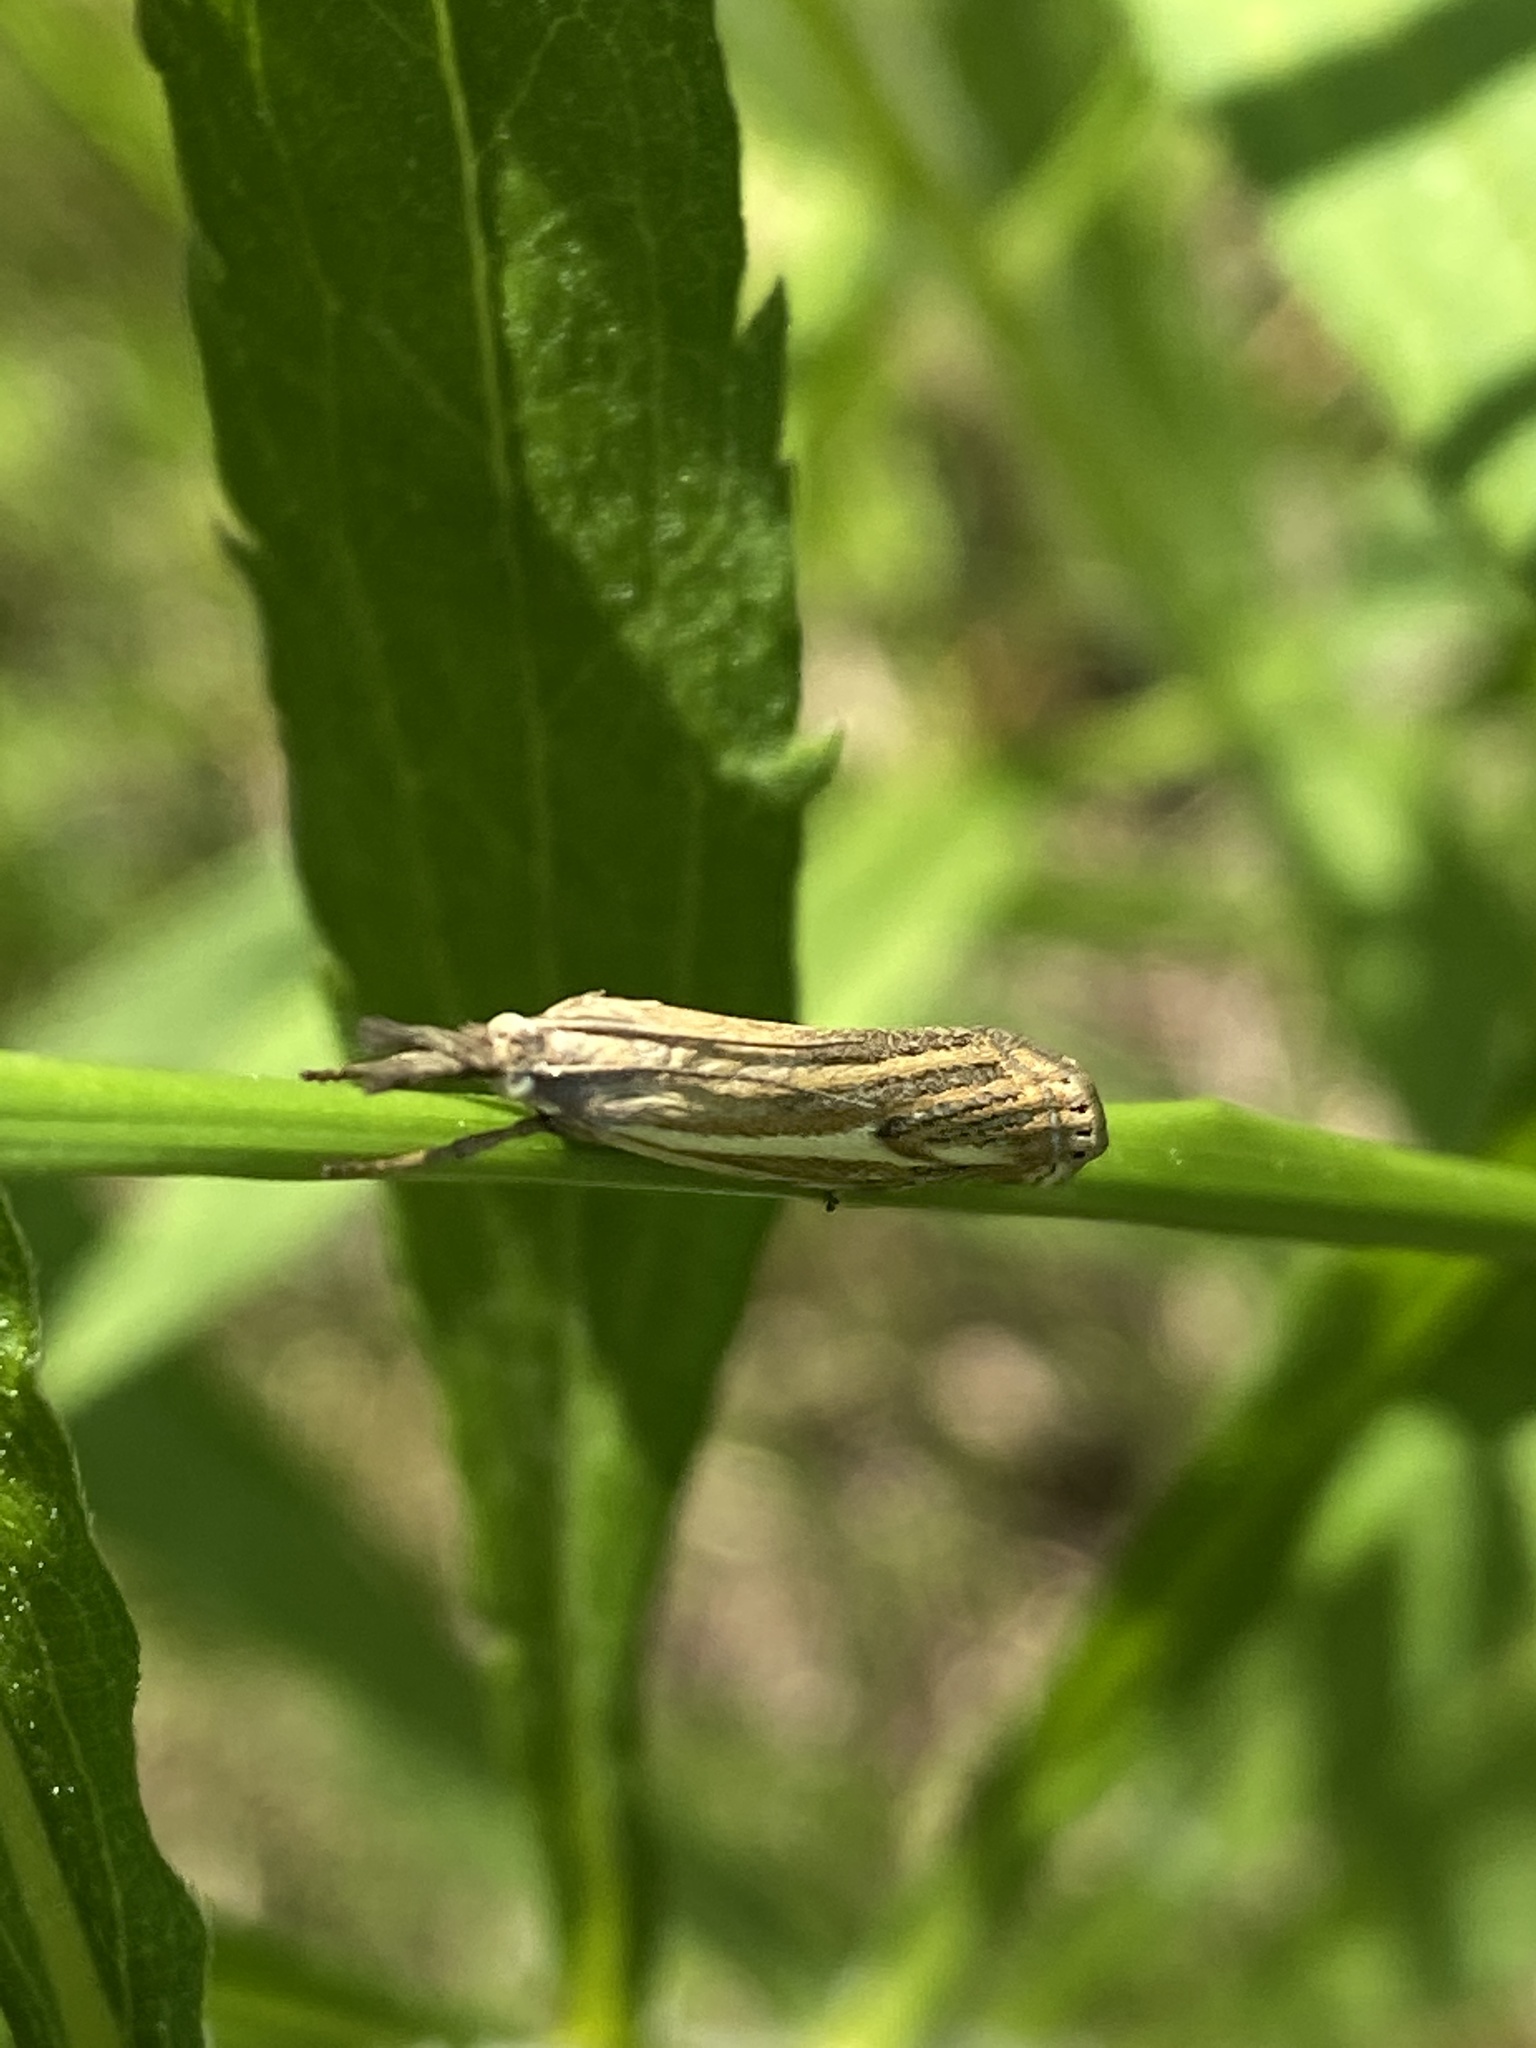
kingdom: Animalia
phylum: Arthropoda
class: Insecta
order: Lepidoptera
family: Crambidae
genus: Crambus
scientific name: Crambus nemorella
